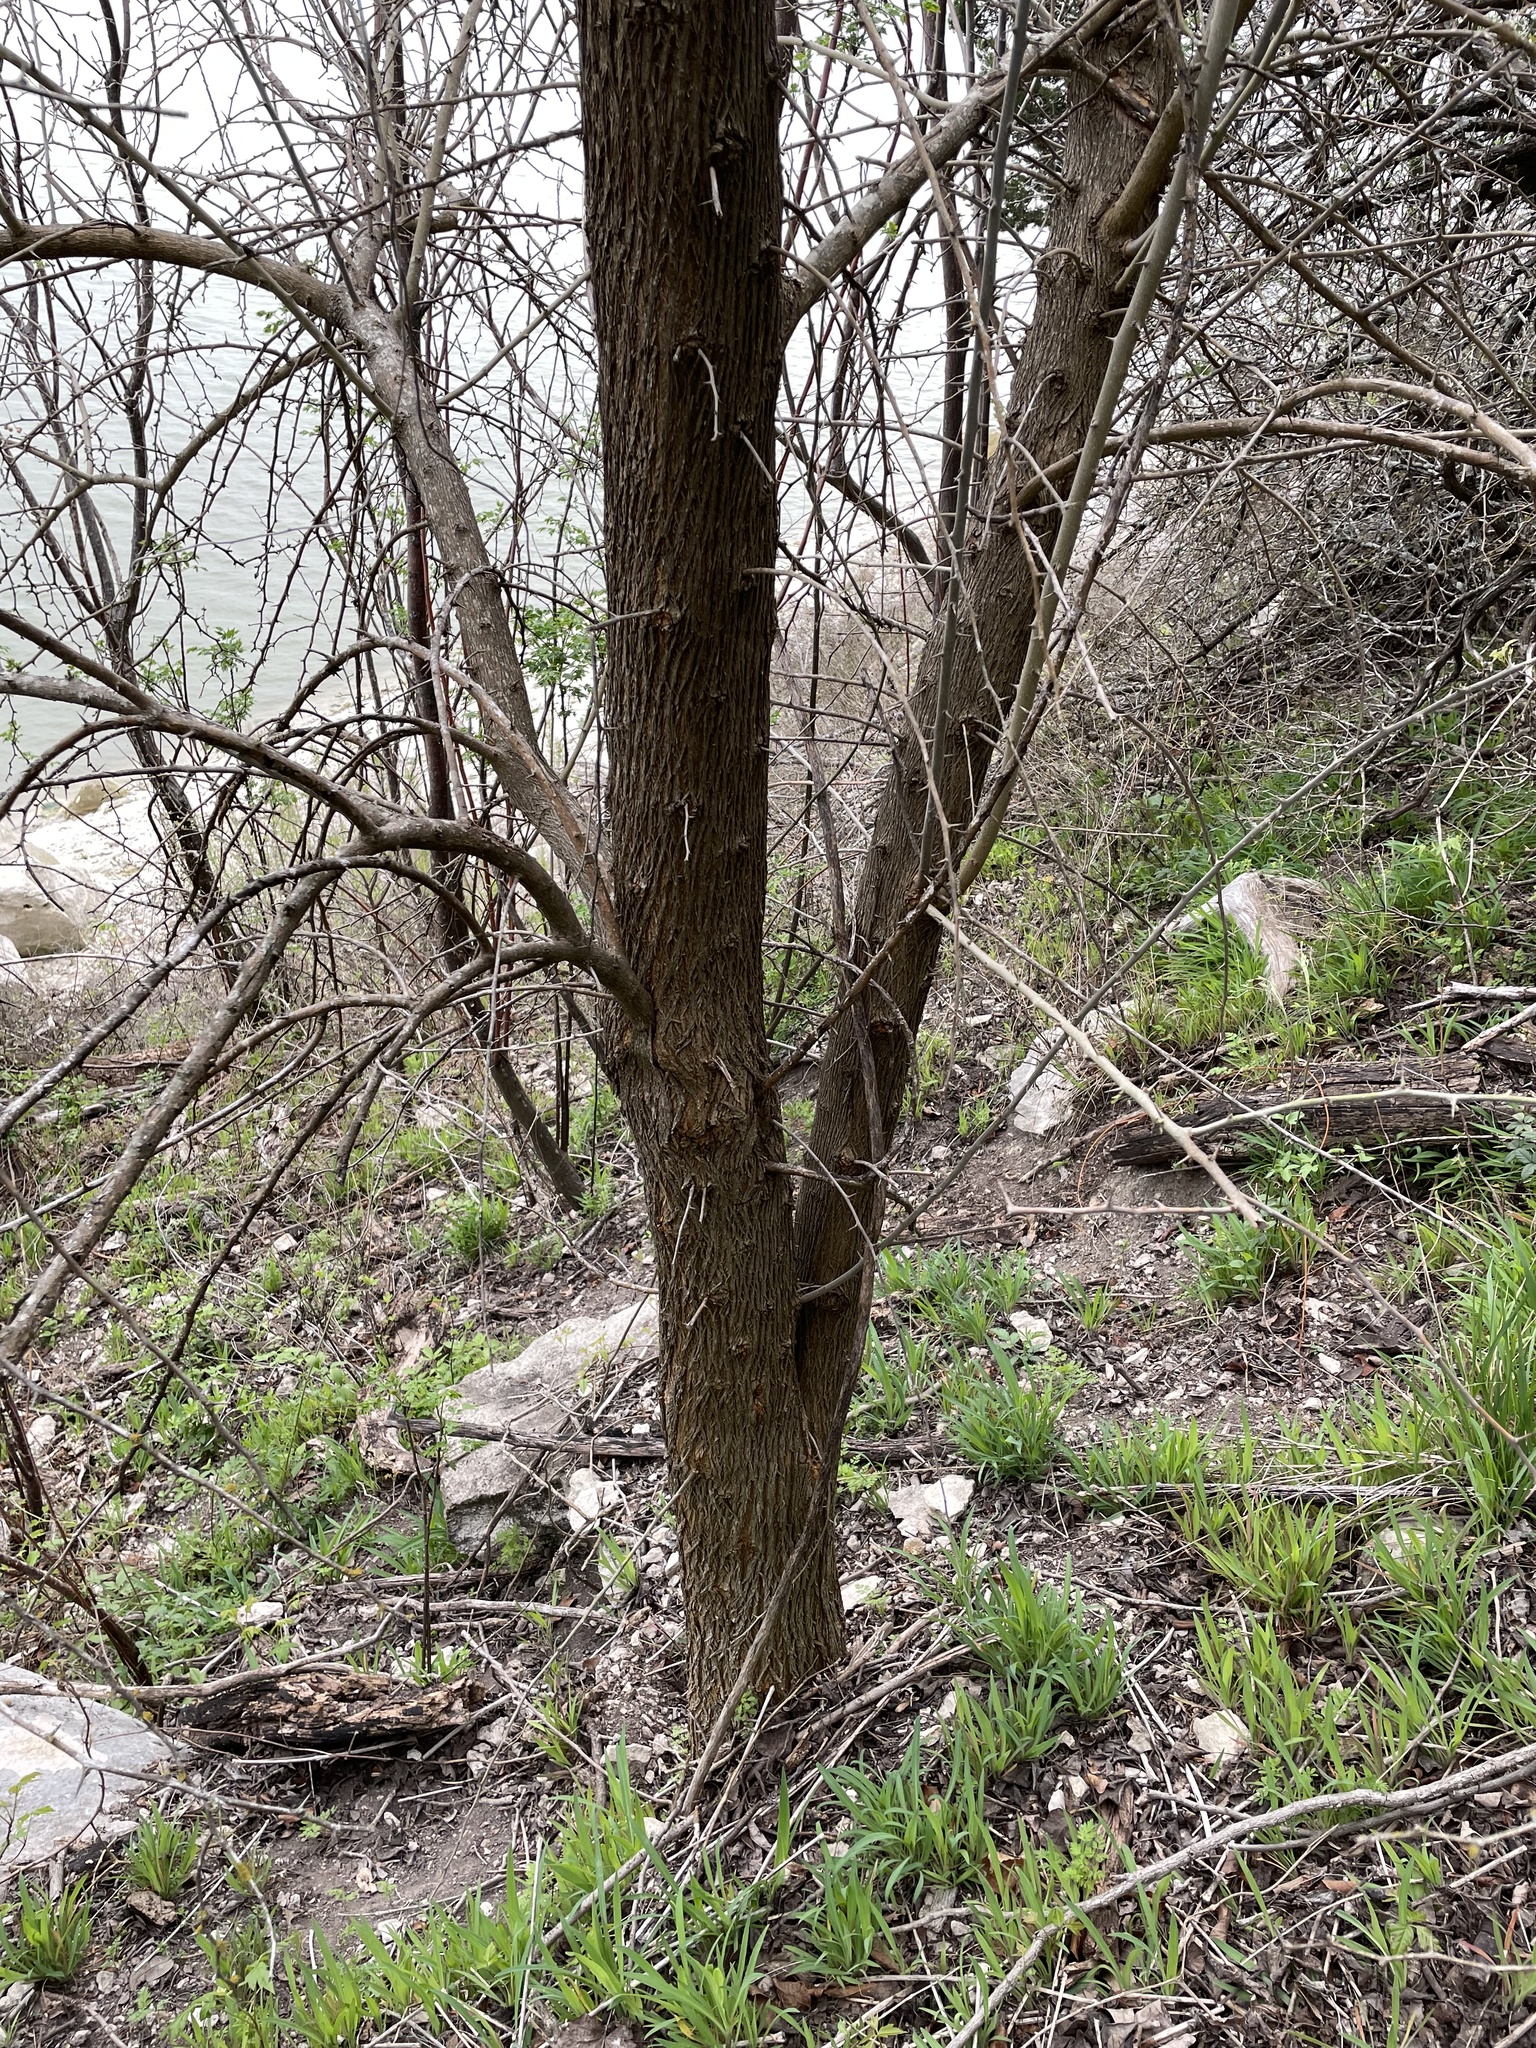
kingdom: Plantae
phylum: Tracheophyta
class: Magnoliopsida
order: Rosales
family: Moraceae
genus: Maclura
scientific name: Maclura pomifera
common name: Osage-orange
